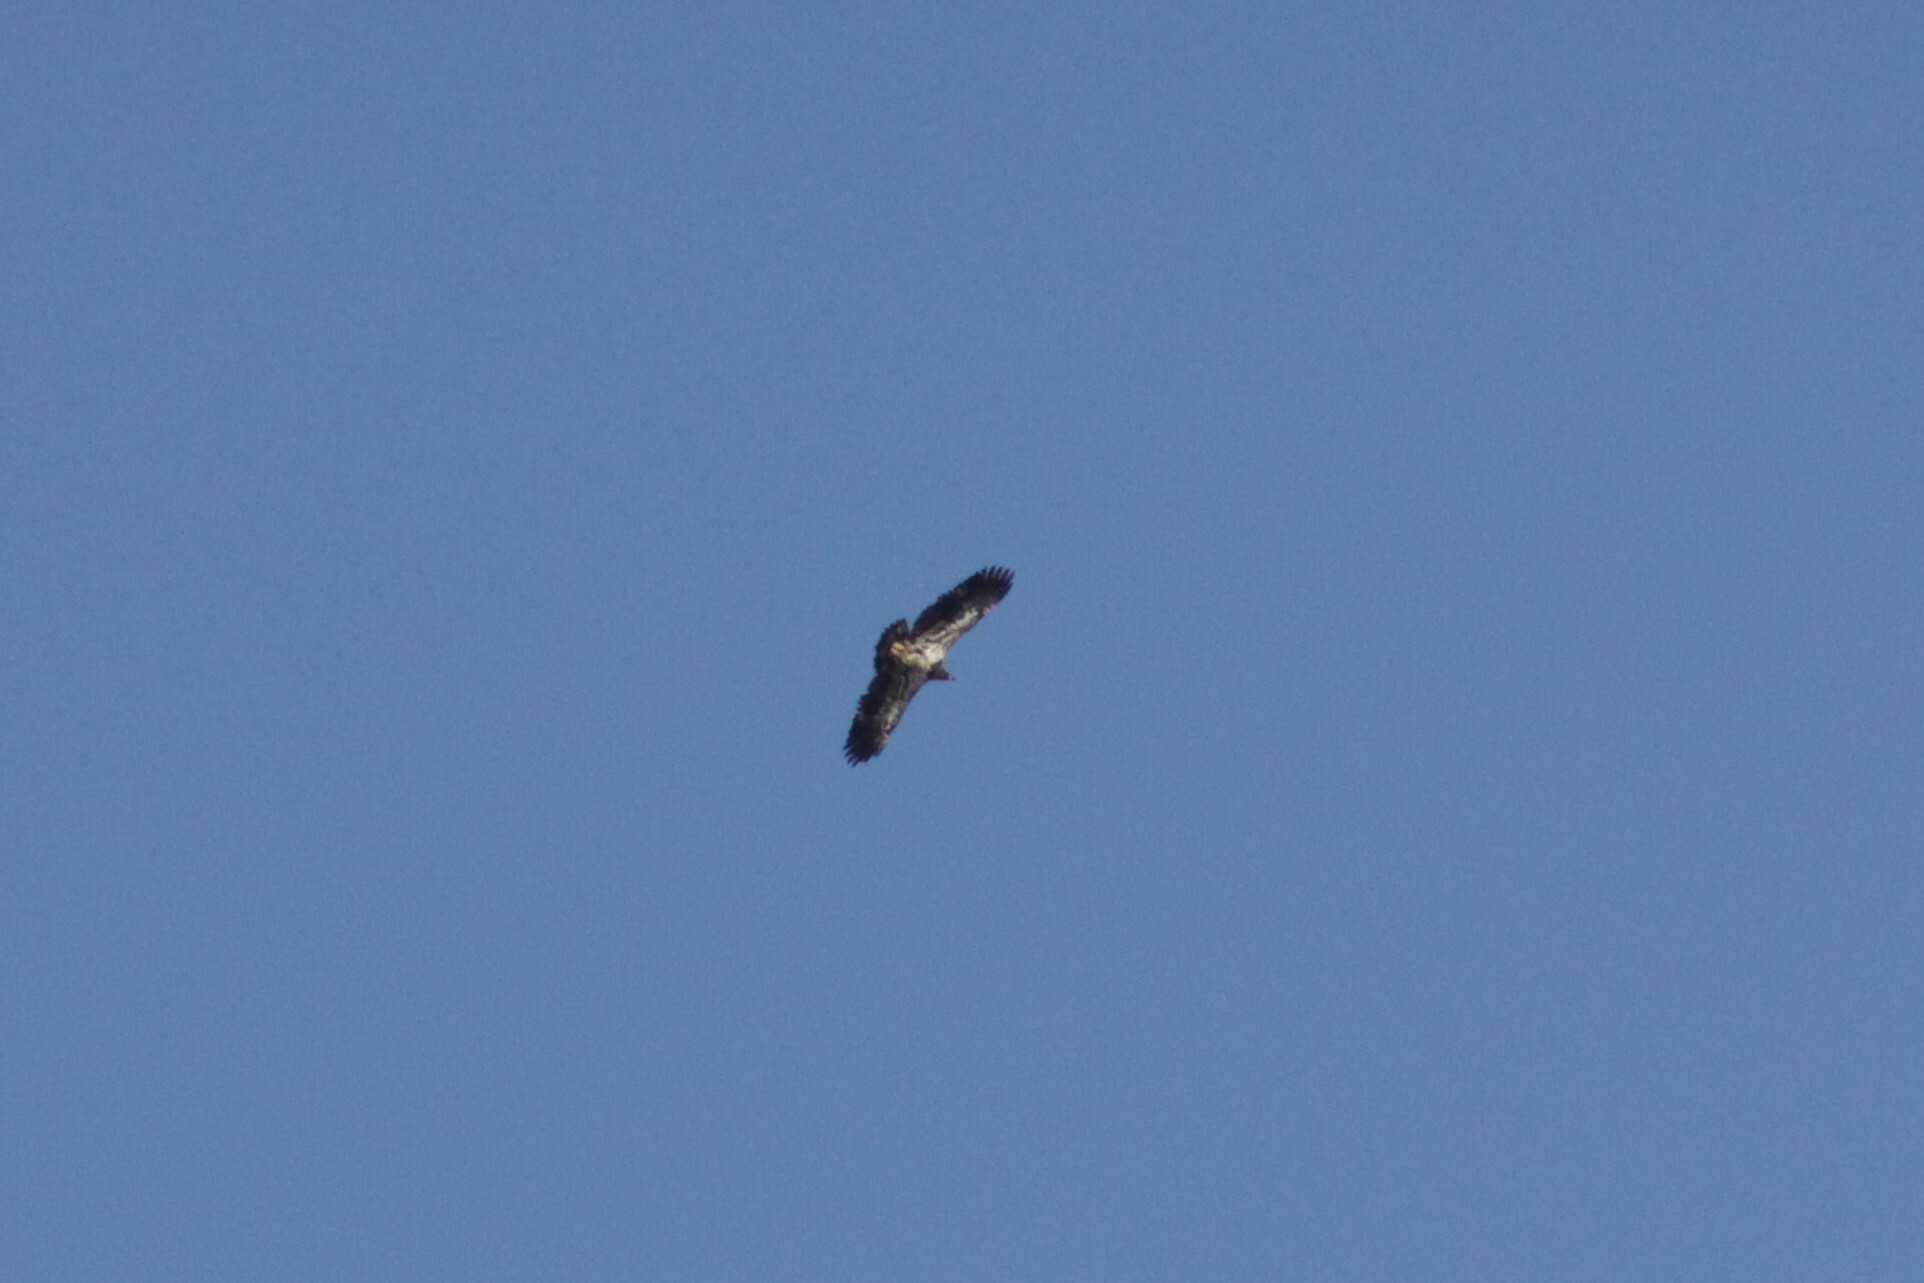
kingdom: Animalia
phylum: Chordata
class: Aves
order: Accipitriformes
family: Accipitridae
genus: Haliaeetus
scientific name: Haliaeetus leucocephalus
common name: Bald eagle
